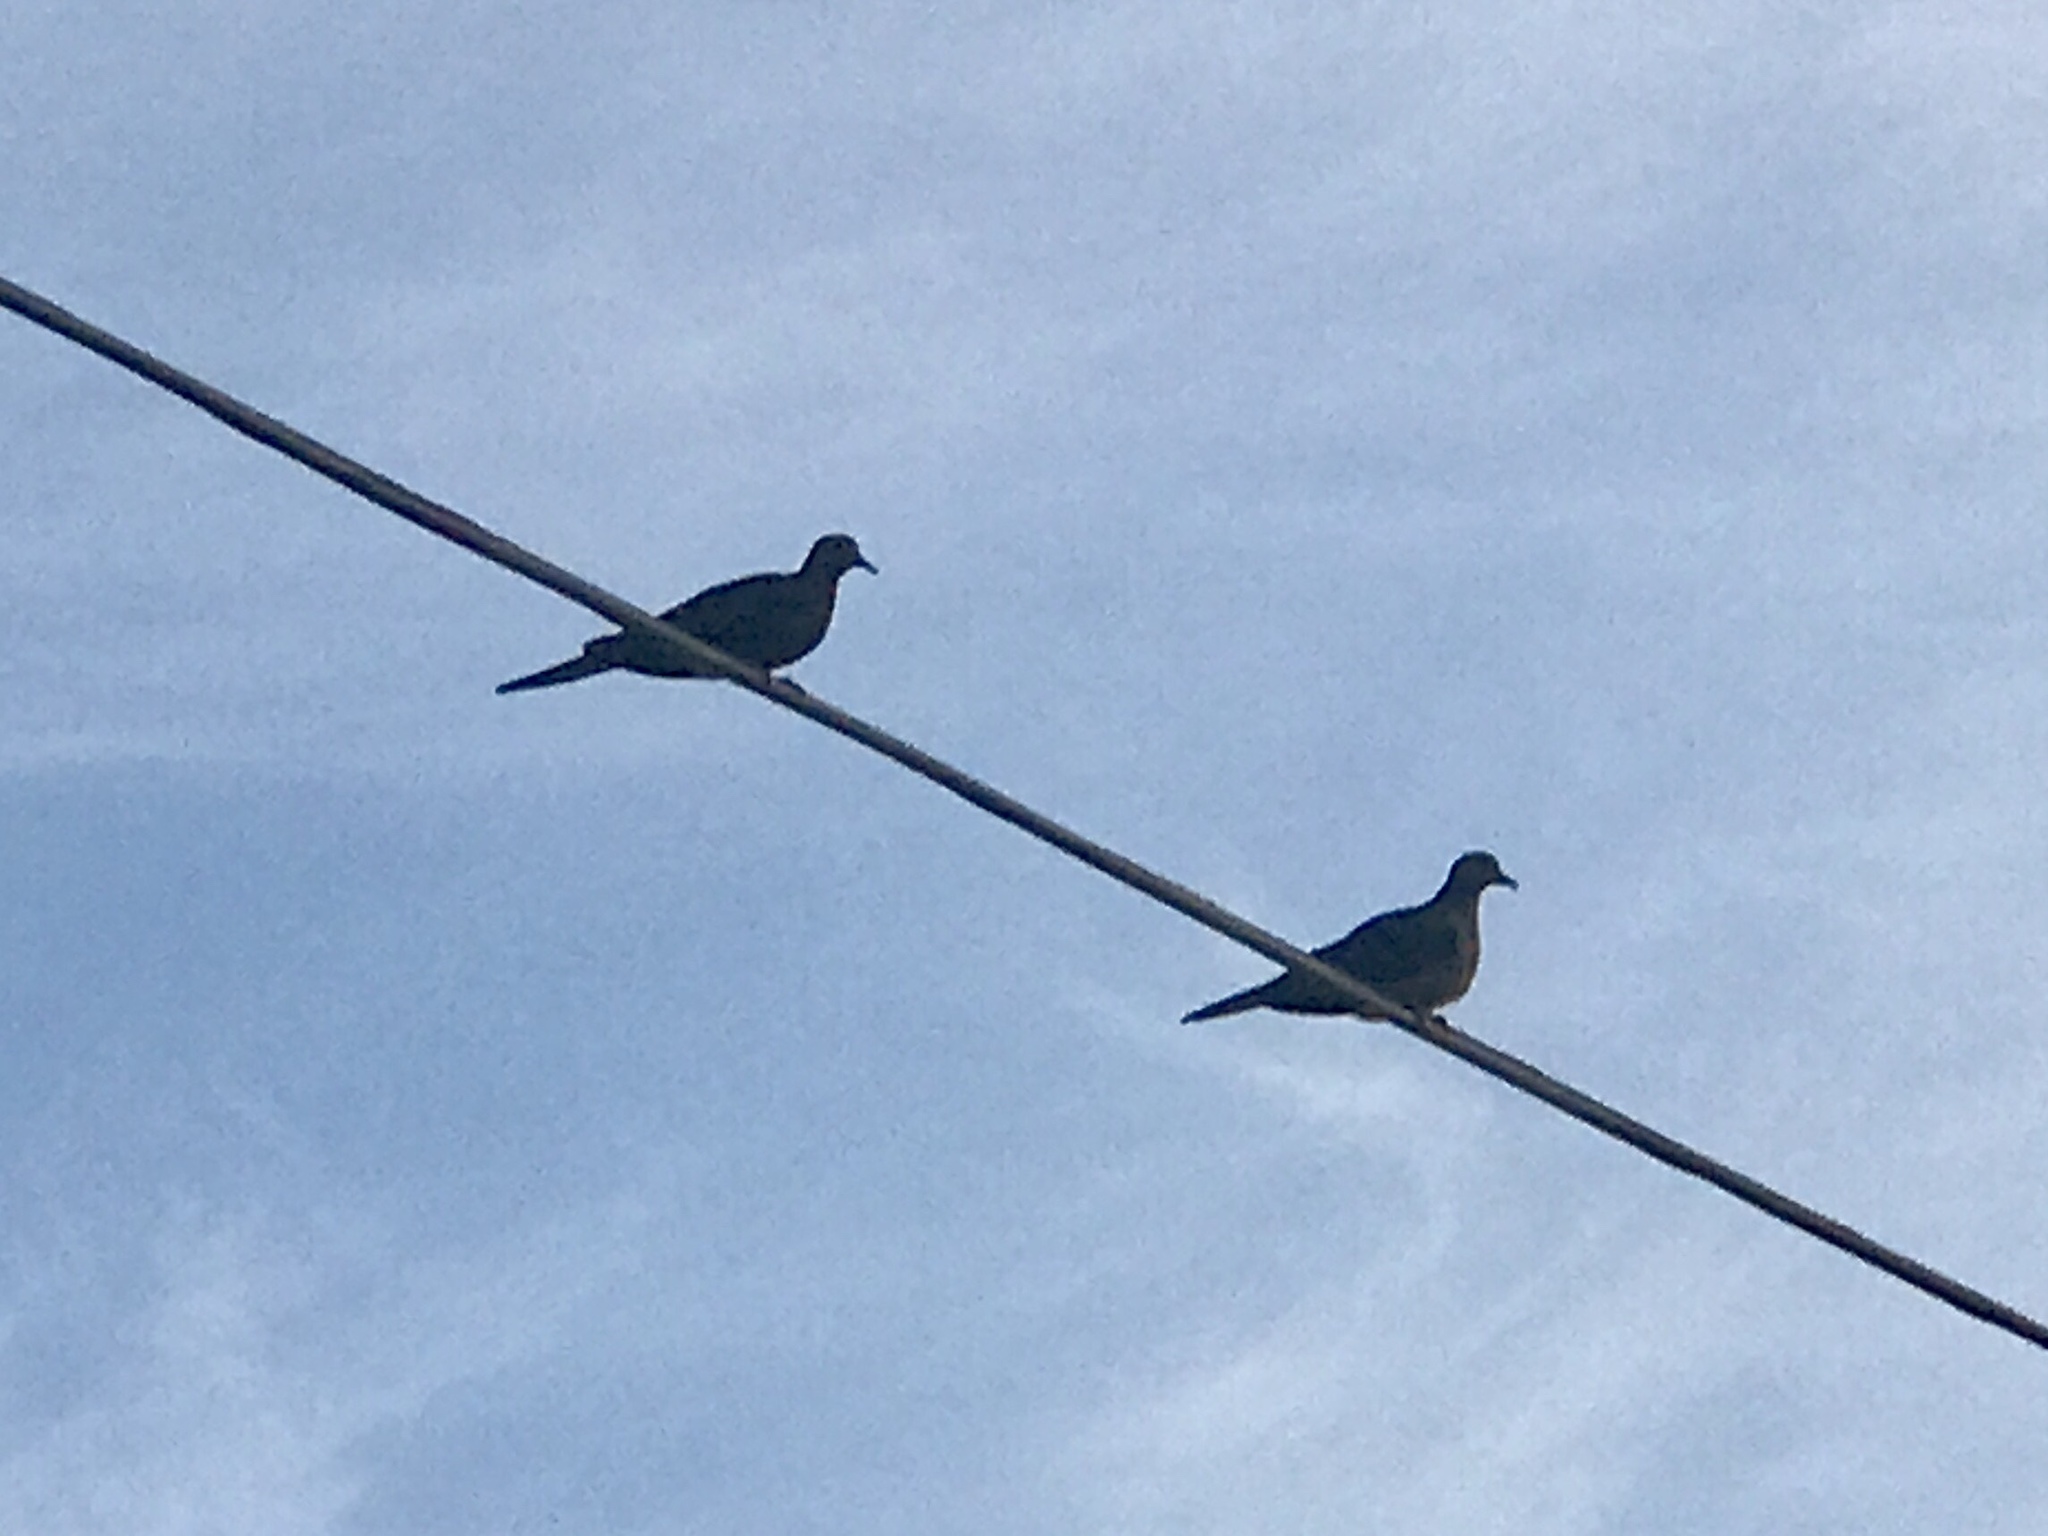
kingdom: Animalia
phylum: Chordata
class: Aves
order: Columbiformes
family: Columbidae
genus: Zenaida
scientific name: Zenaida macroura
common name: Mourning dove
